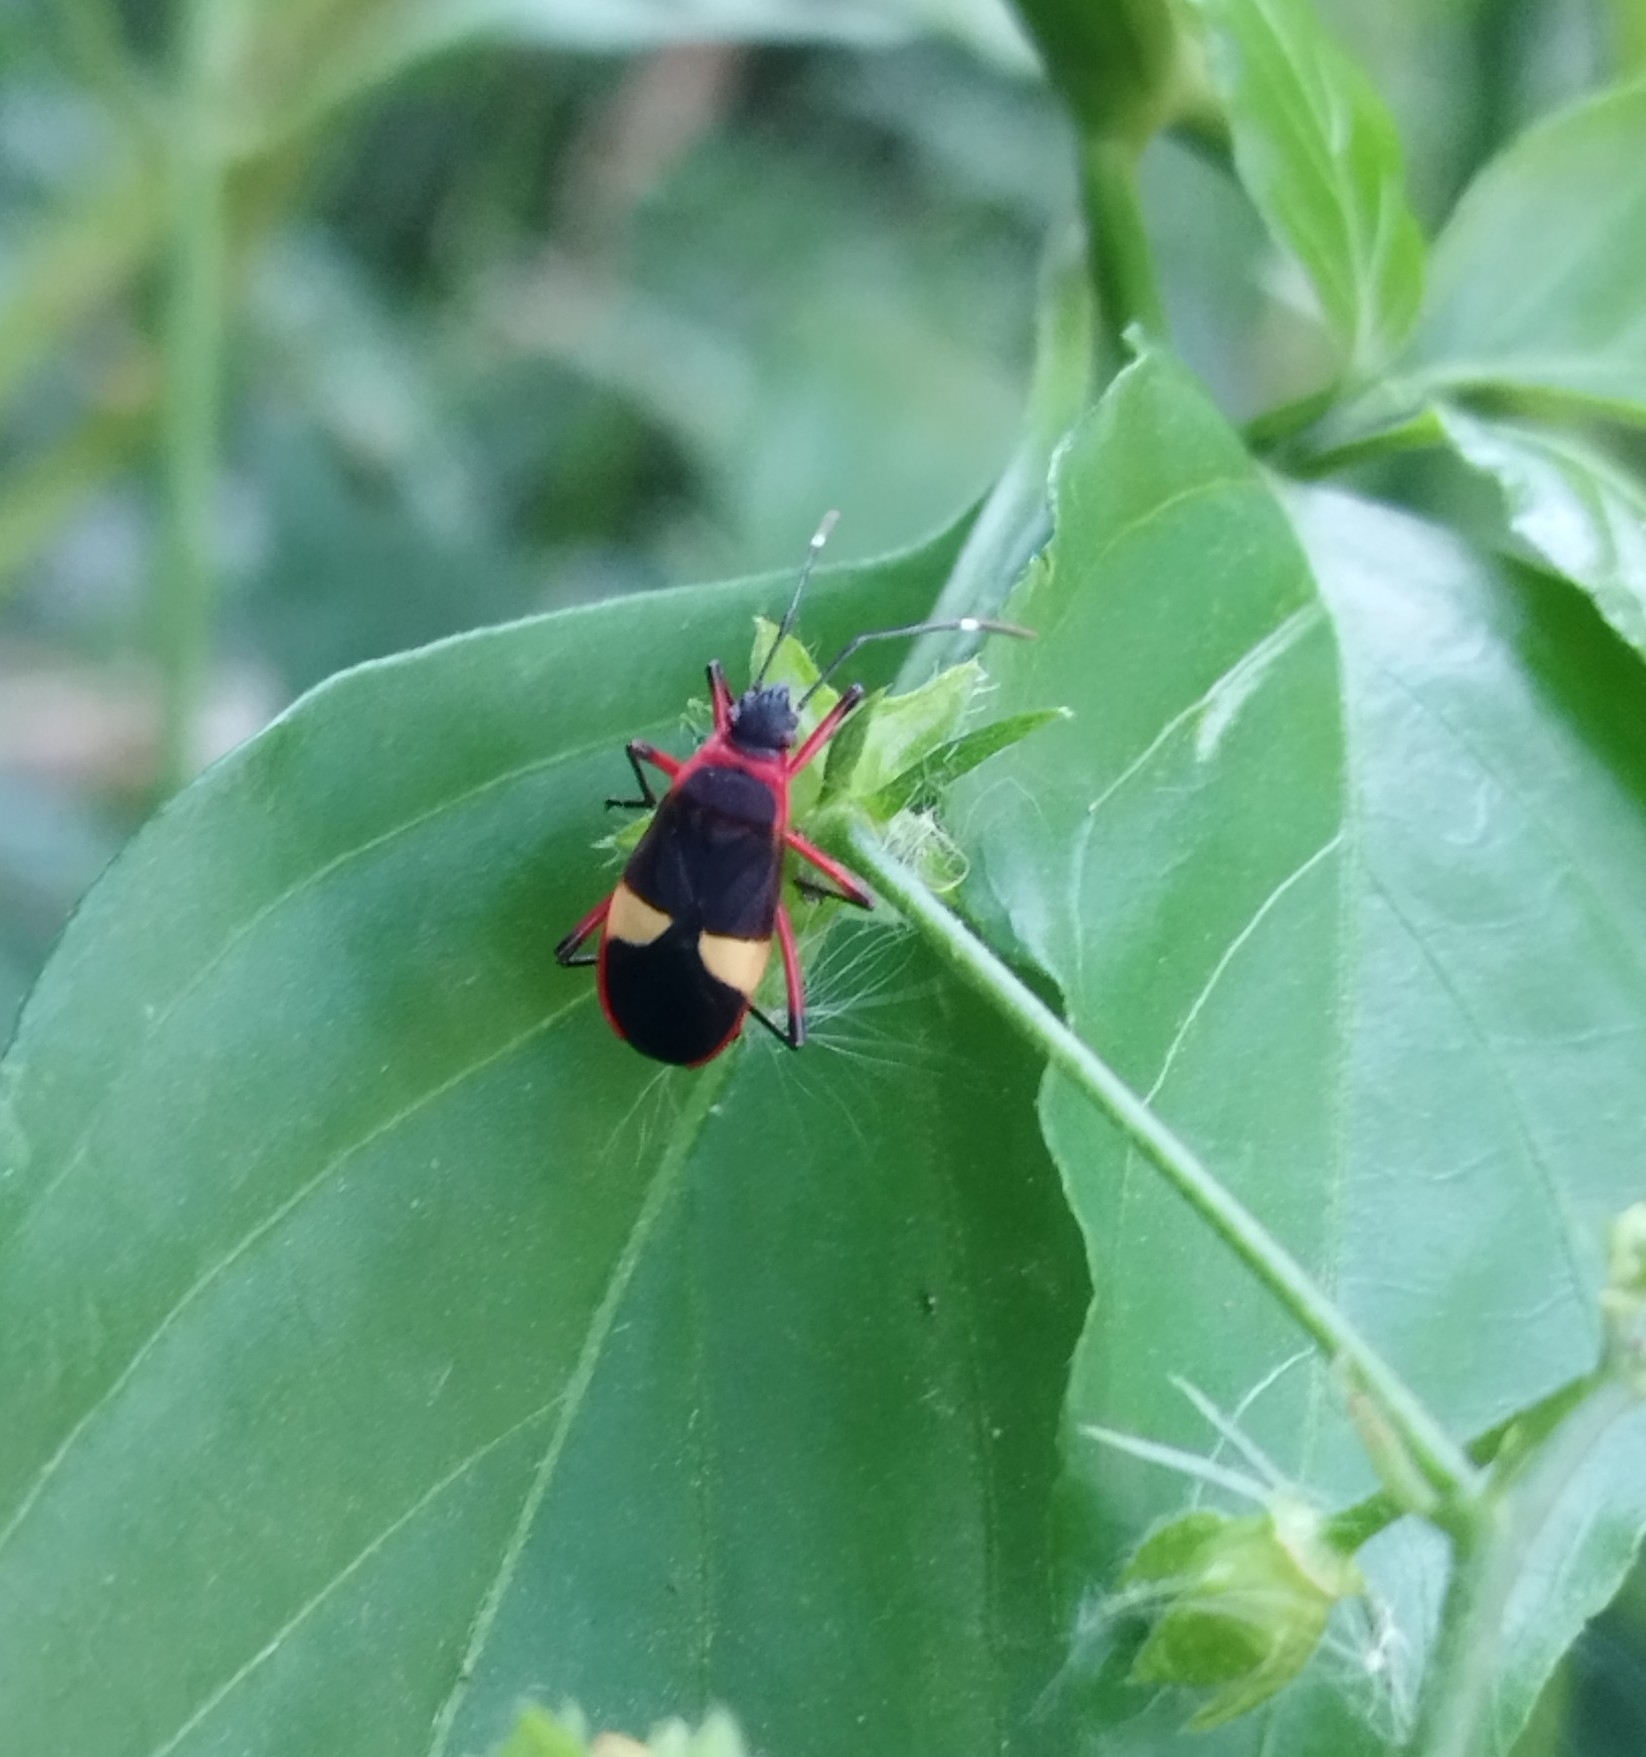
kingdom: Animalia
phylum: Arthropoda
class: Insecta
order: Hemiptera
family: Pyrrhocoridae
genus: Dysdercus
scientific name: Dysdercus albofasciatus
